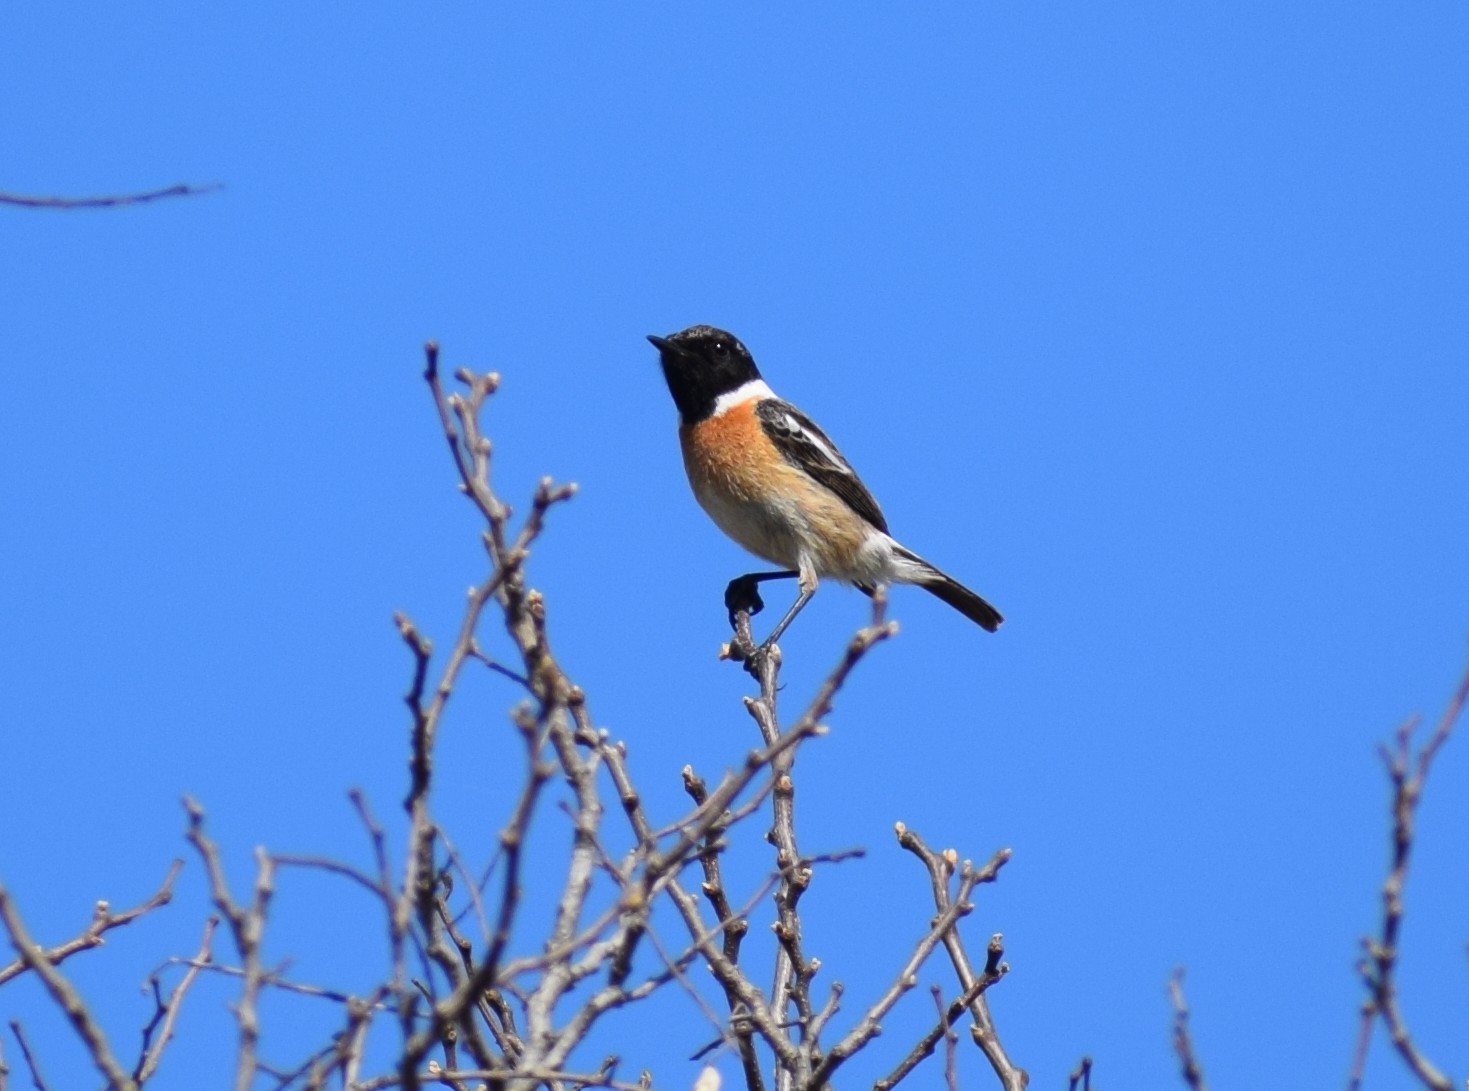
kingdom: Animalia
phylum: Chordata
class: Aves
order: Passeriformes
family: Muscicapidae
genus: Saxicola
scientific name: Saxicola rubicola
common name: European stonechat
